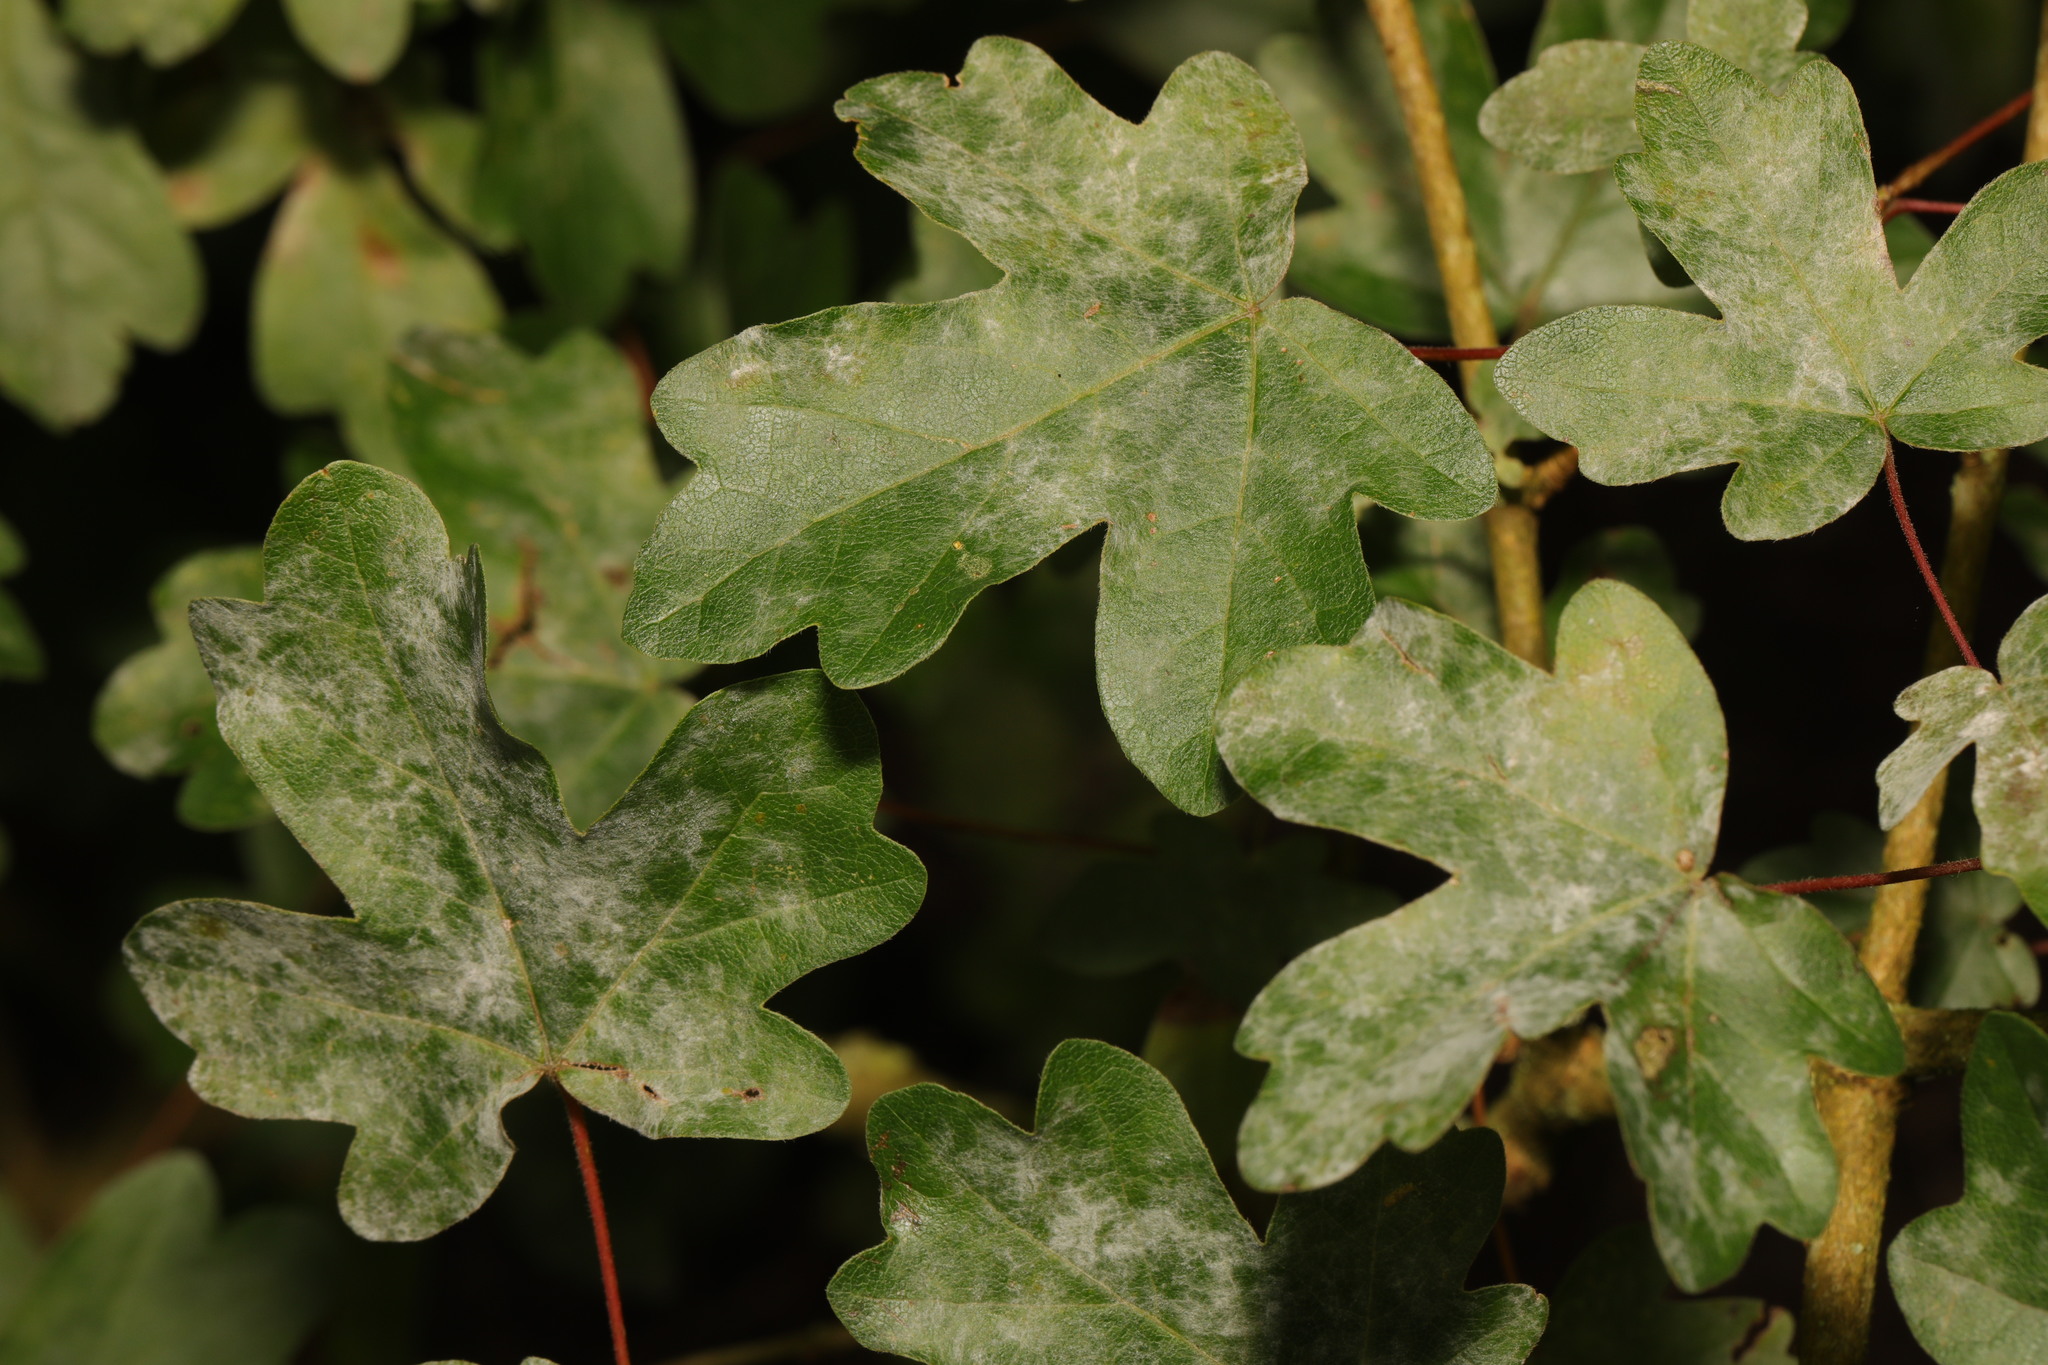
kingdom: Fungi
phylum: Ascomycota
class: Leotiomycetes
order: Helotiales
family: Erysiphaceae
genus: Sawadaea
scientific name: Sawadaea bicornis
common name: Maple mildew
